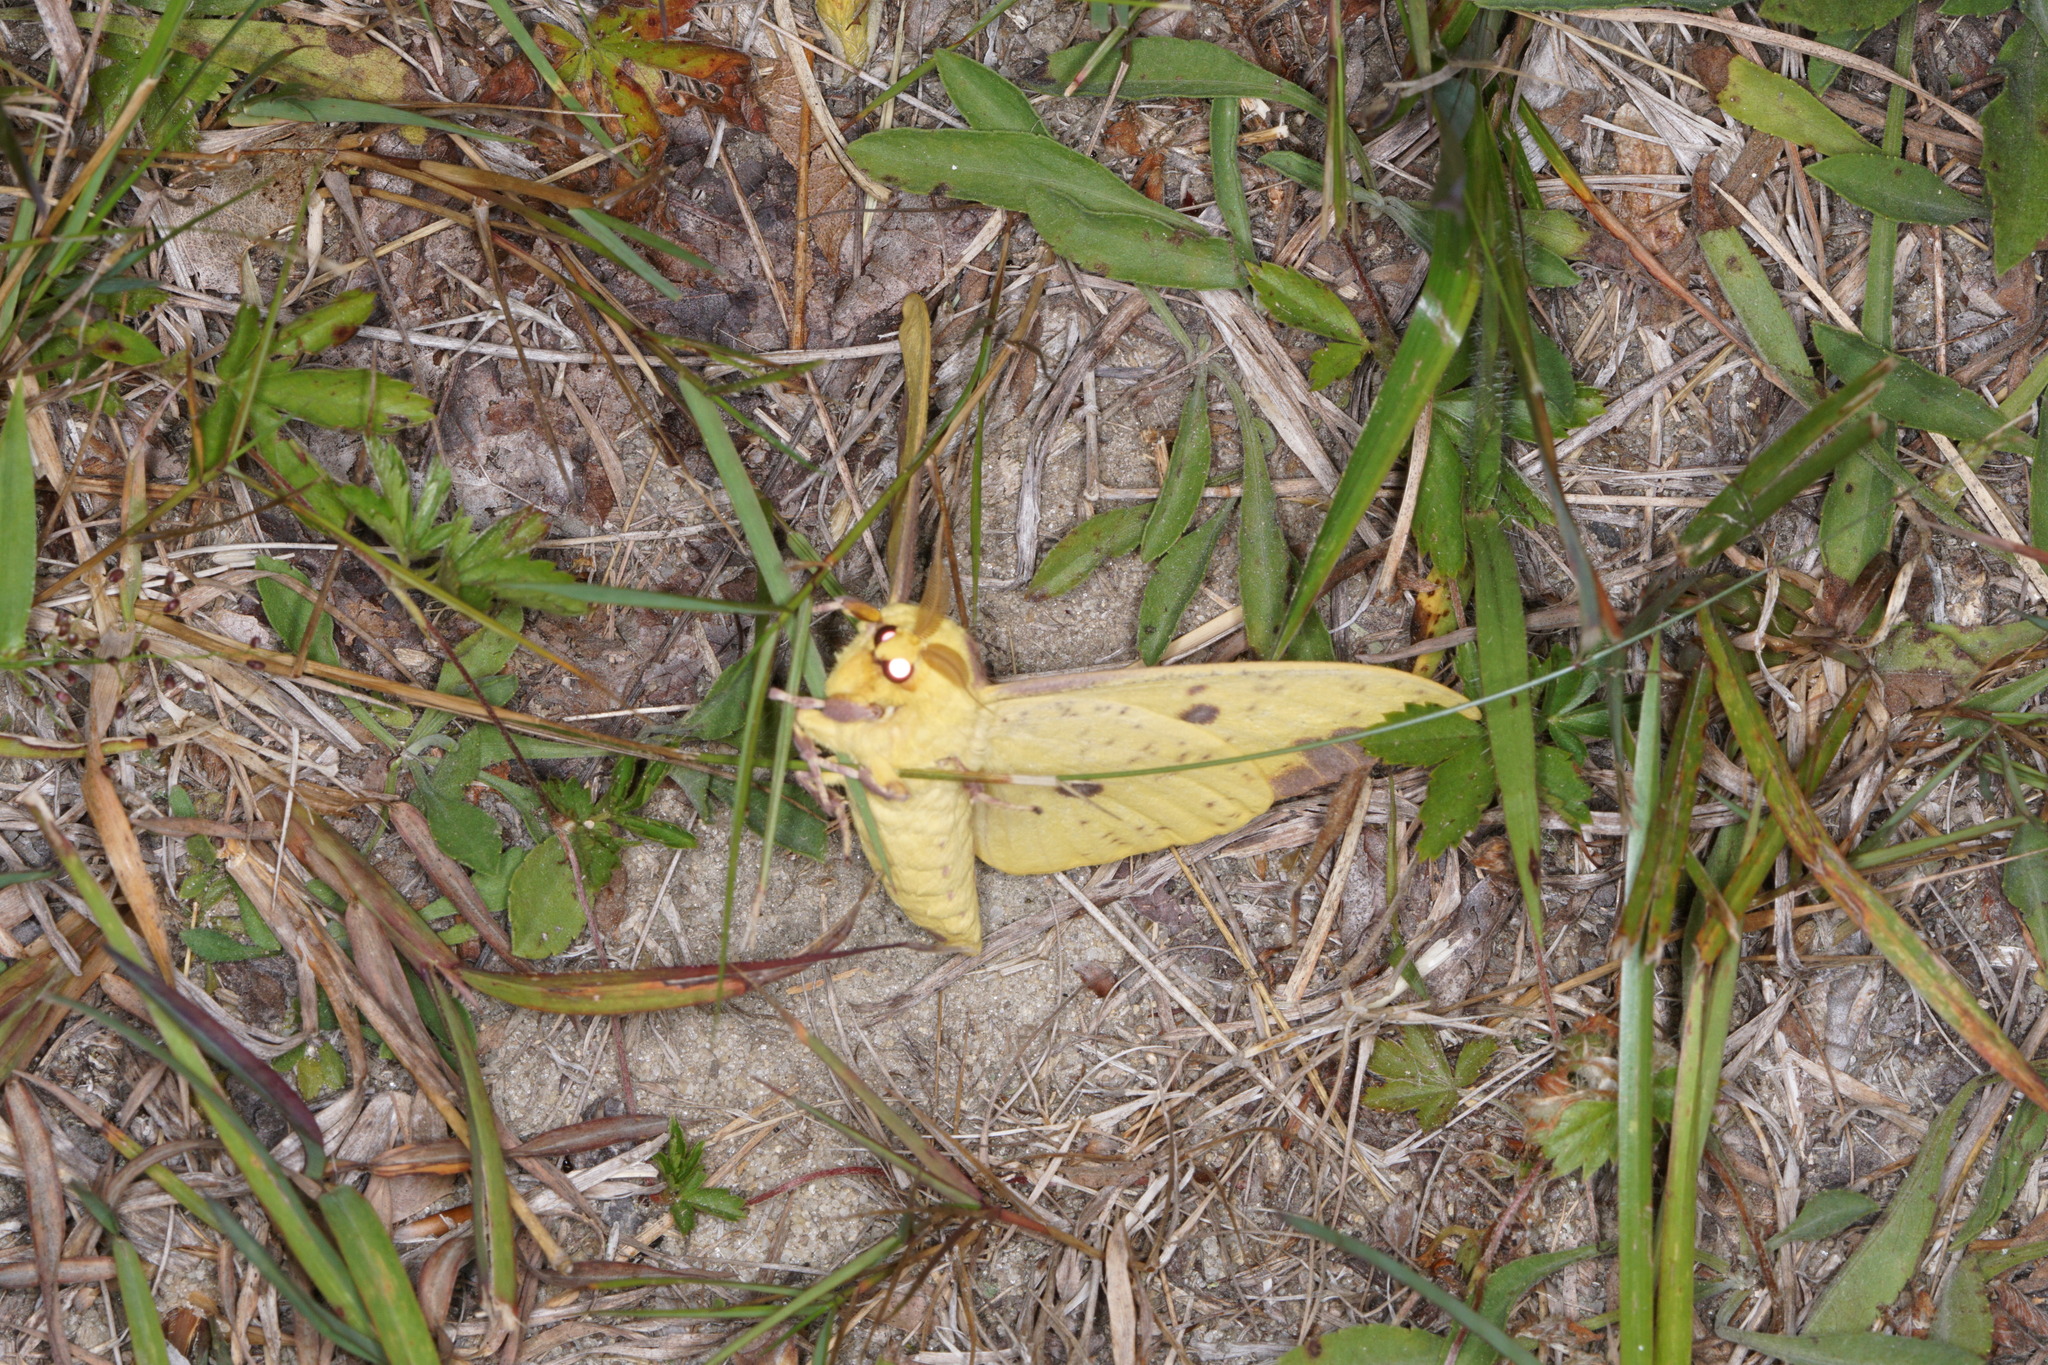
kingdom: Animalia
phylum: Arthropoda
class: Insecta
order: Lepidoptera
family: Saturniidae
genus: Eacles
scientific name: Eacles imperialis
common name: Imperial moth
